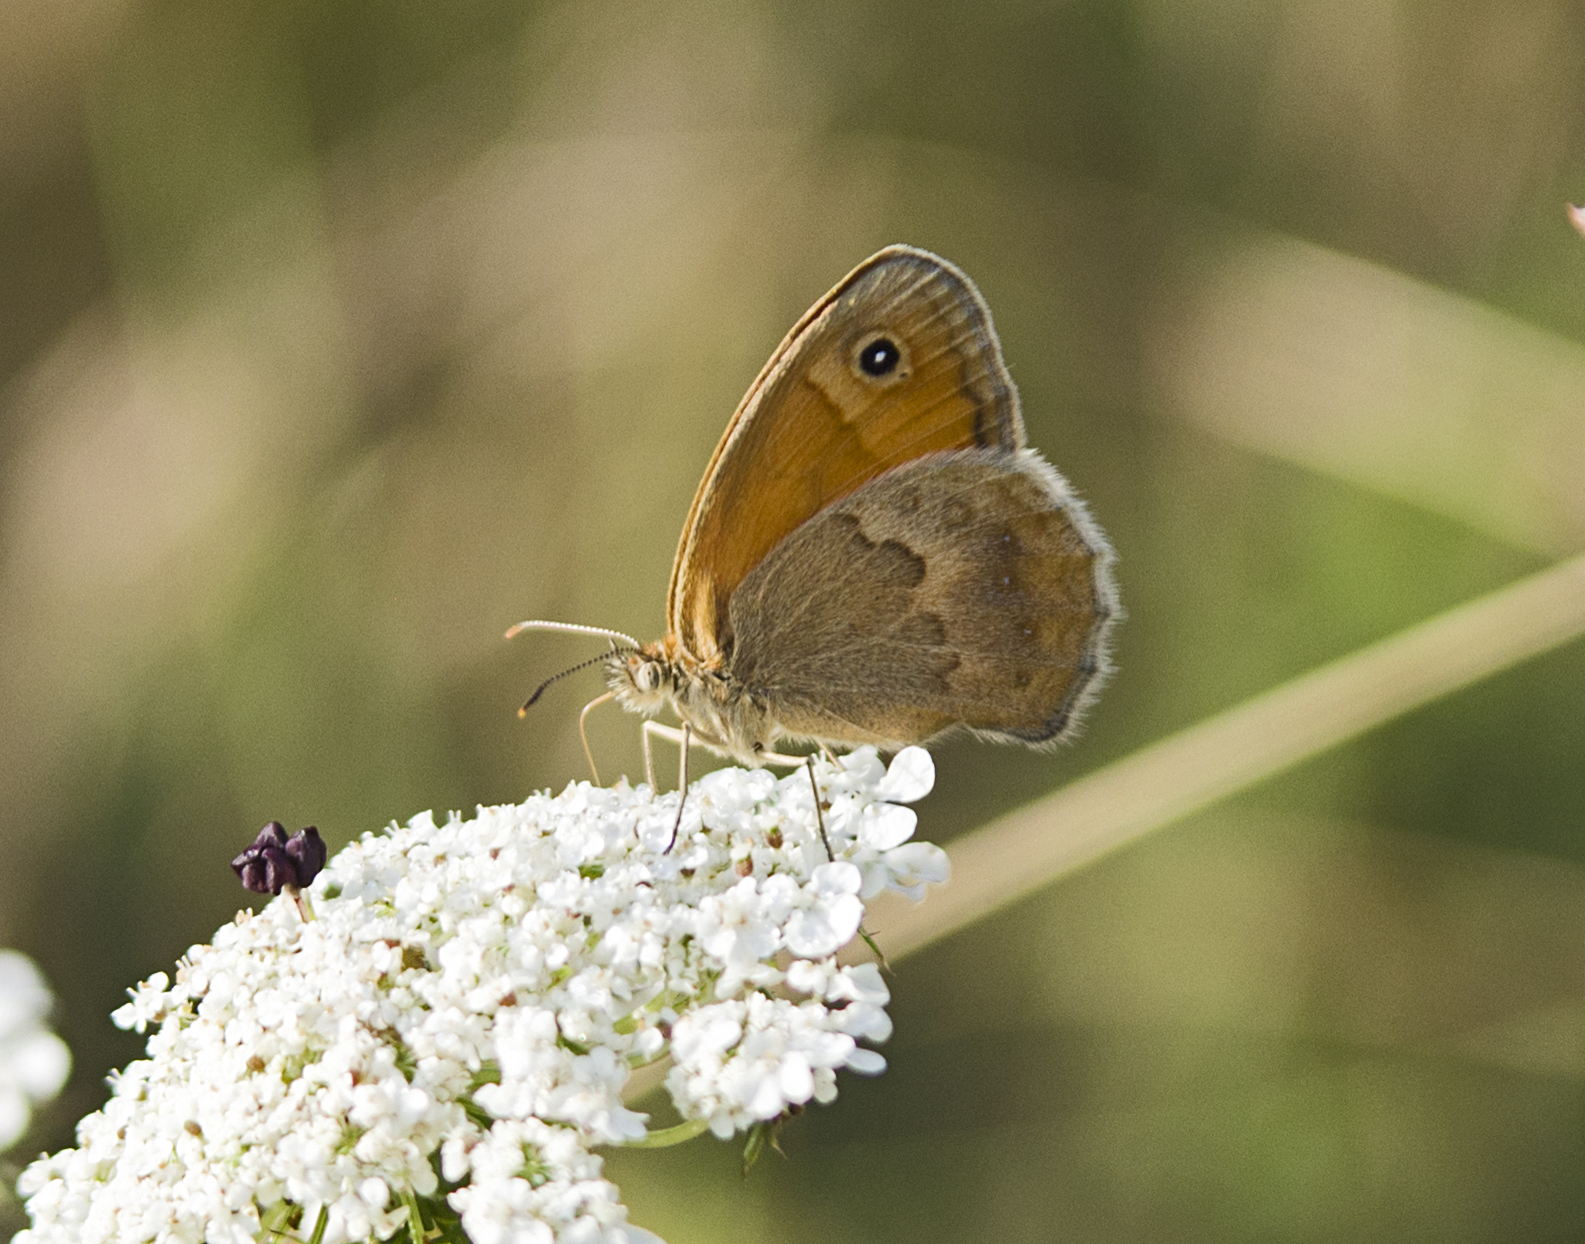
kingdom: Animalia
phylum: Arthropoda
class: Insecta
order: Lepidoptera
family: Nymphalidae
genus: Coenonympha
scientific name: Coenonympha pamphilus
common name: Small heath
